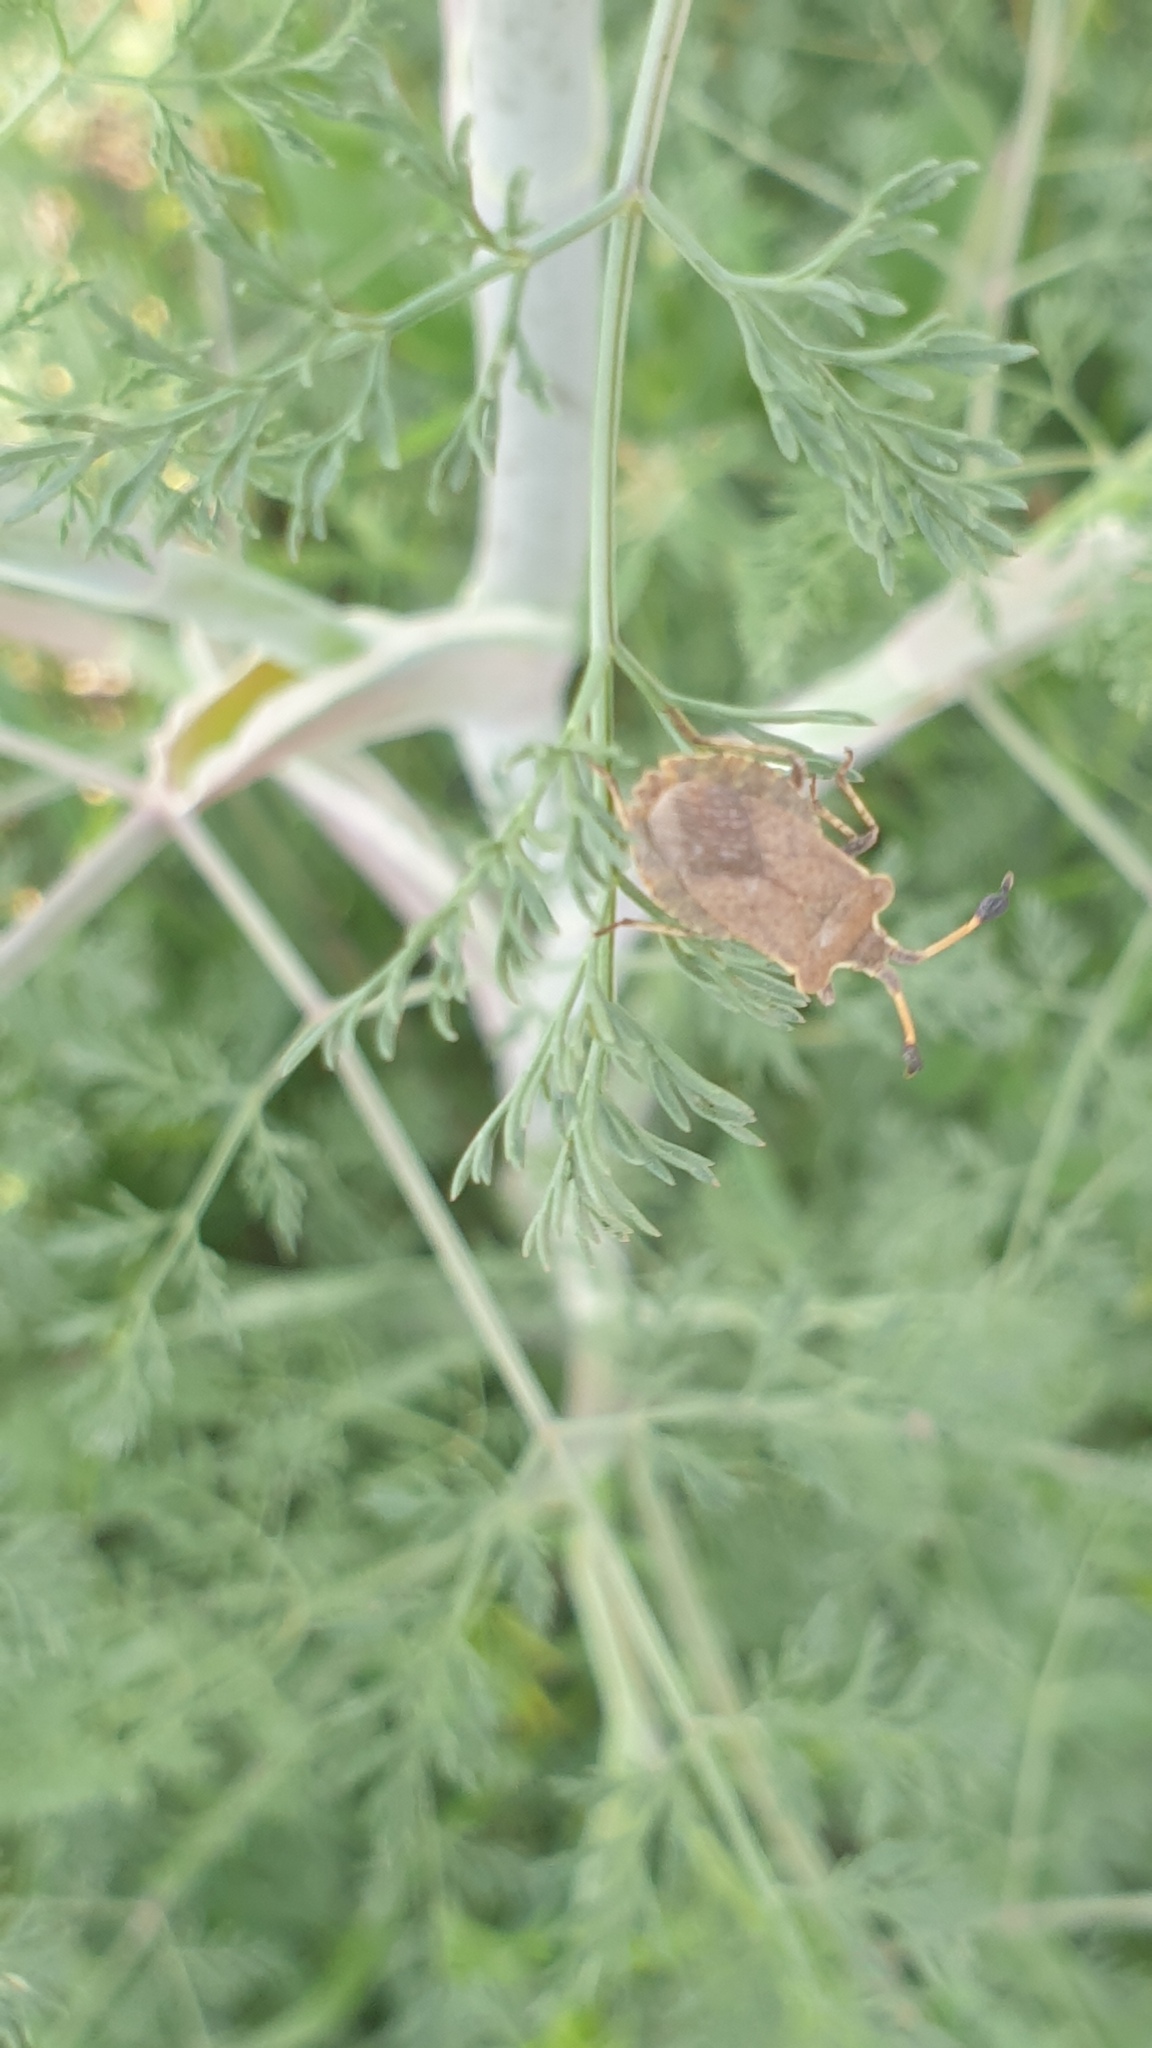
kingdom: Animalia
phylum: Arthropoda
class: Insecta
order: Hemiptera
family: Coreidae
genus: Enoplops
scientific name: Enoplops disciger
